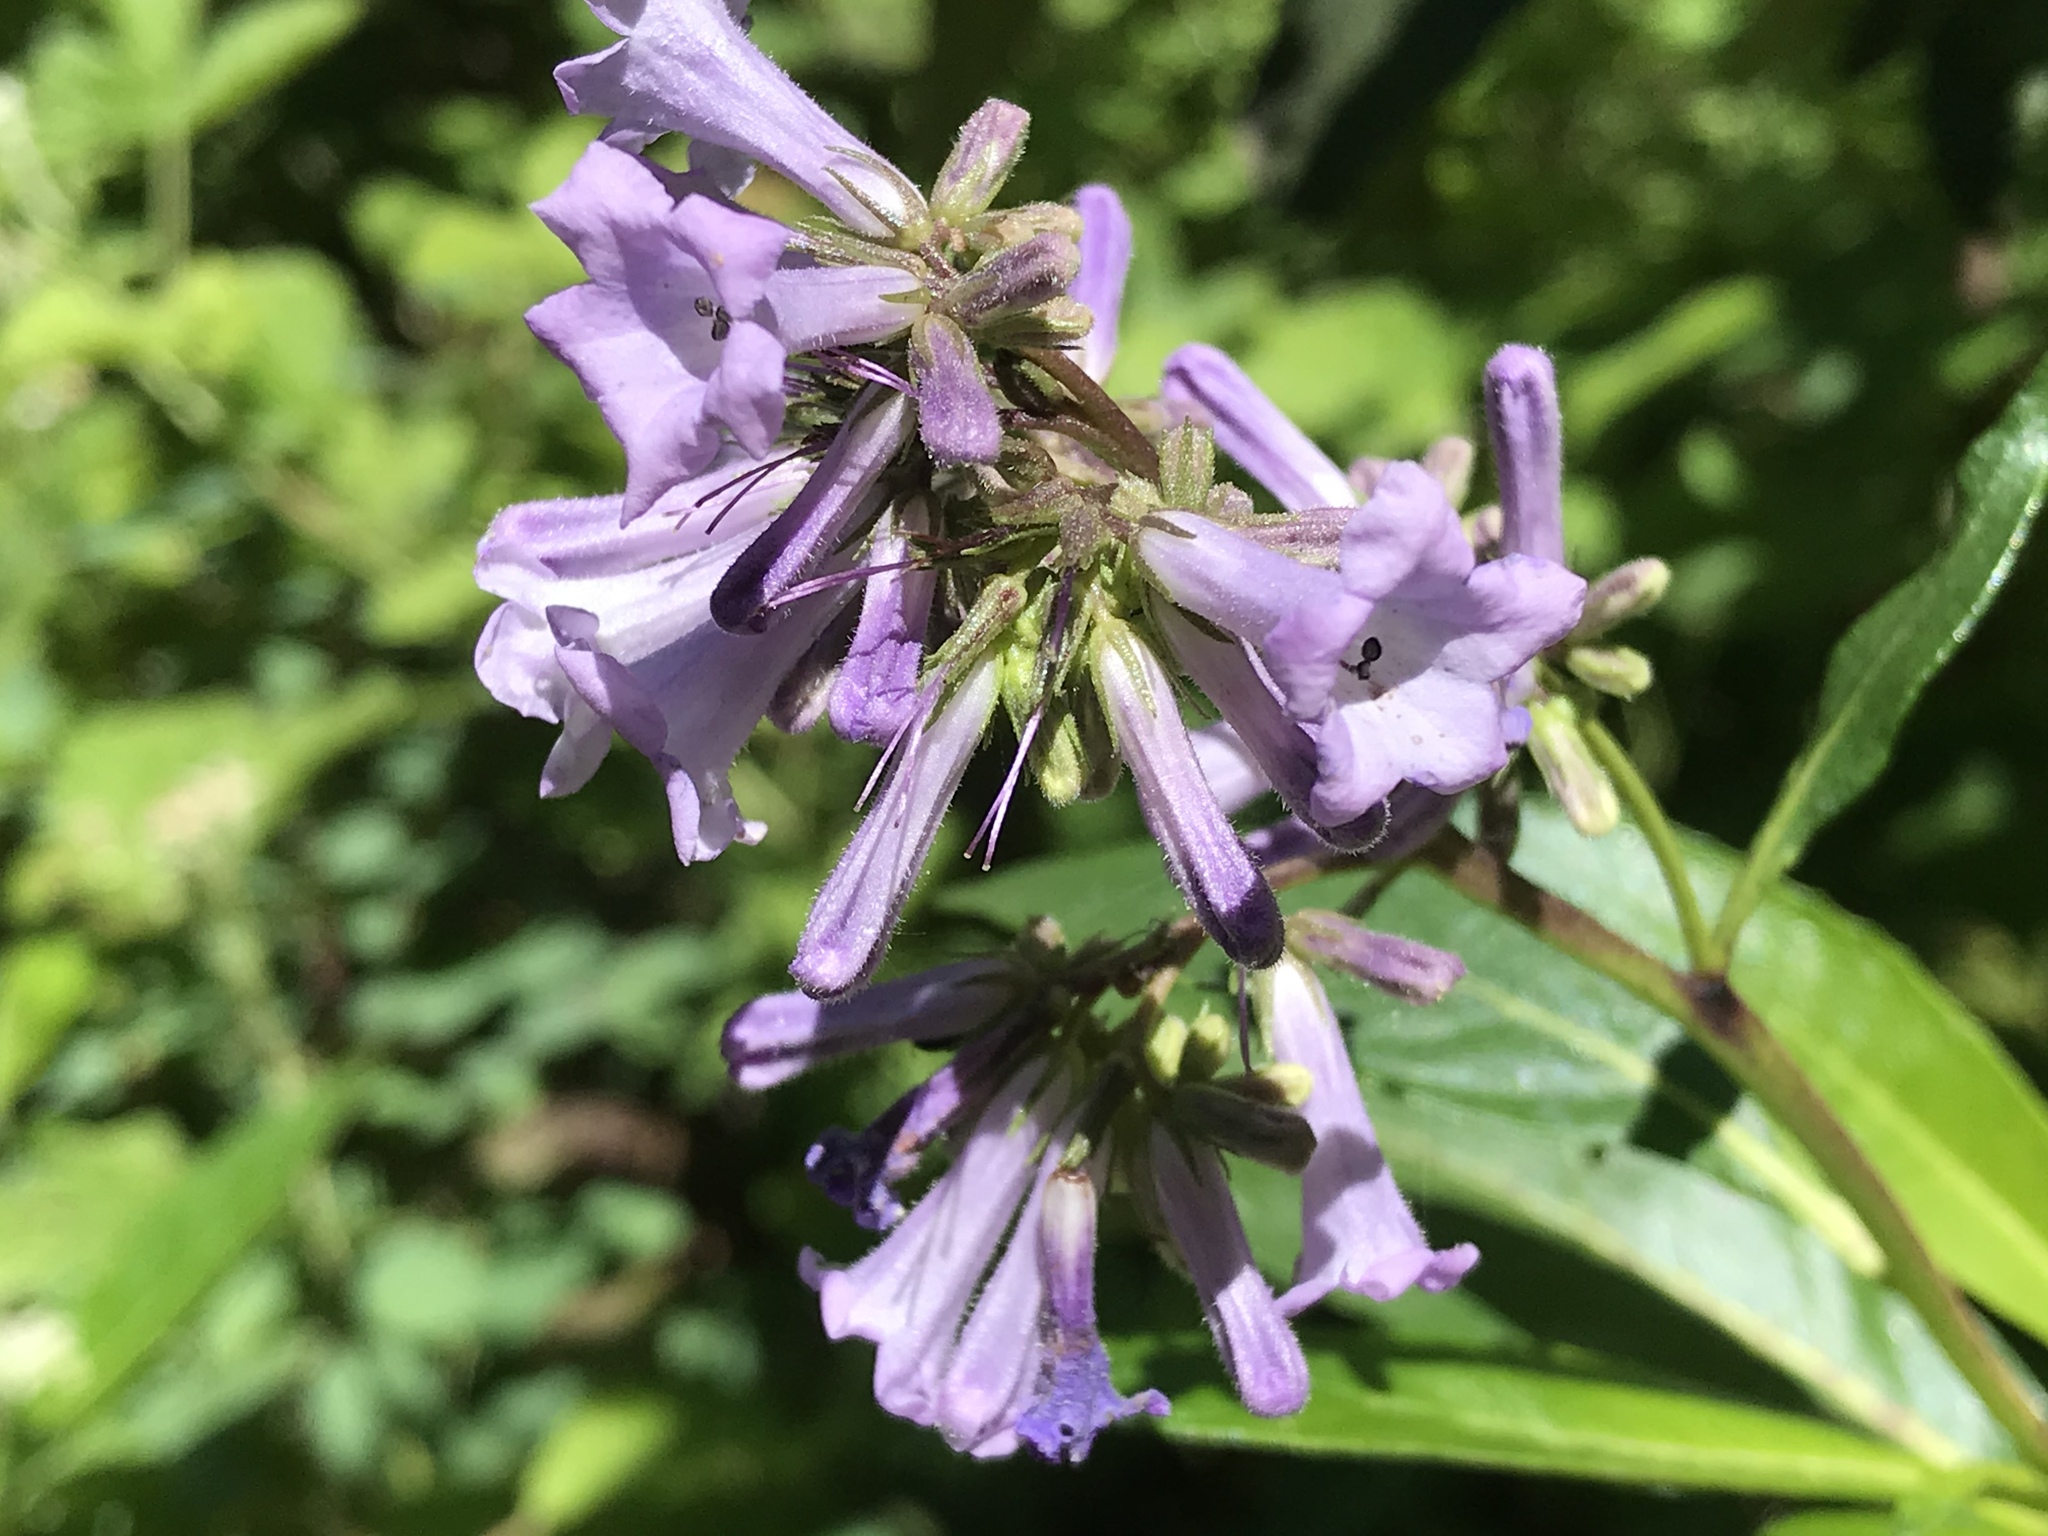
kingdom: Plantae
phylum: Tracheophyta
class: Magnoliopsida
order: Boraginales
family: Namaceae
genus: Eriodictyon
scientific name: Eriodictyon californicum
